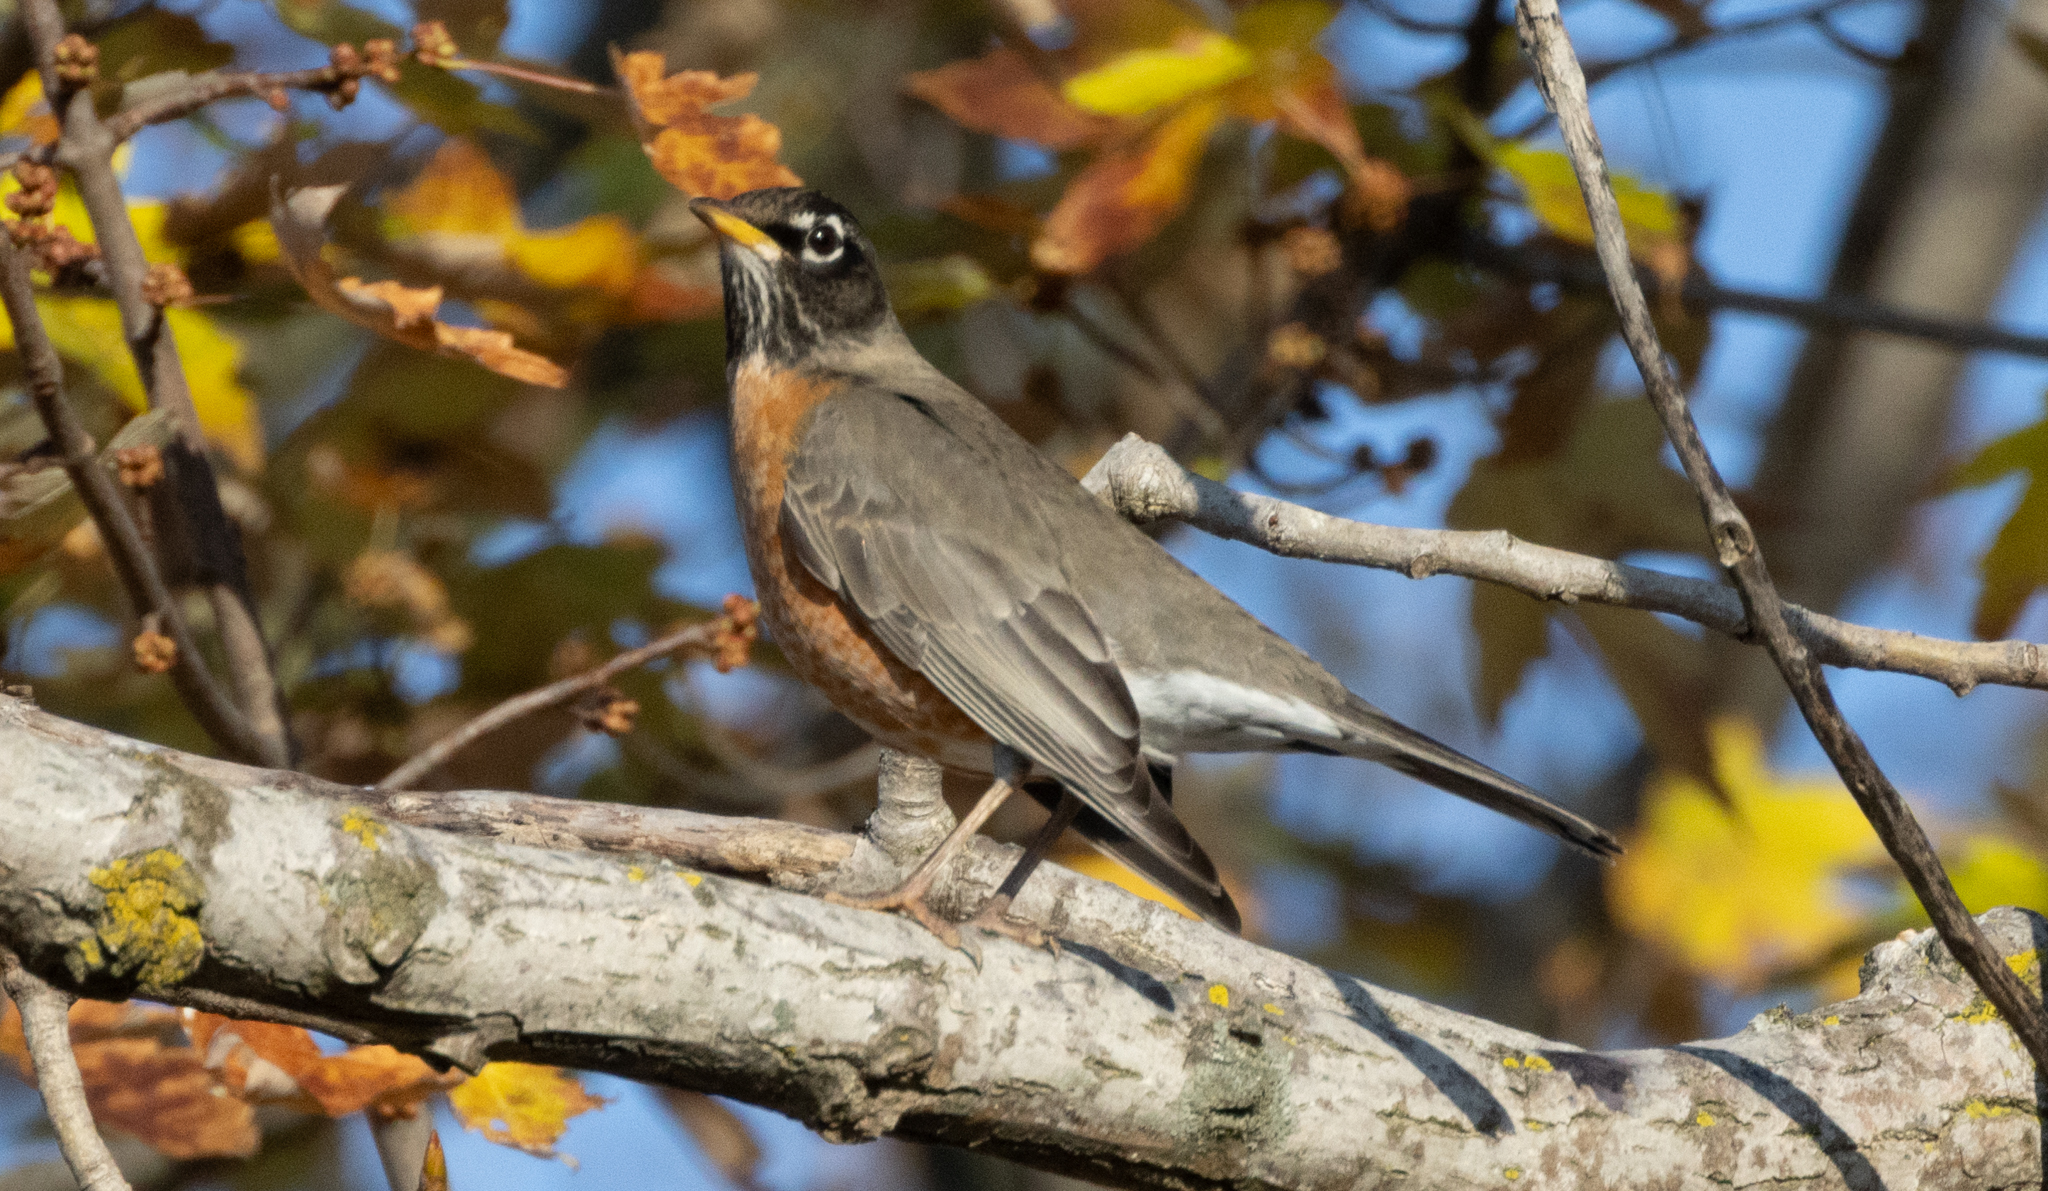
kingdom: Animalia
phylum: Chordata
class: Aves
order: Passeriformes
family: Turdidae
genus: Turdus
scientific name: Turdus migratorius
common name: American robin
